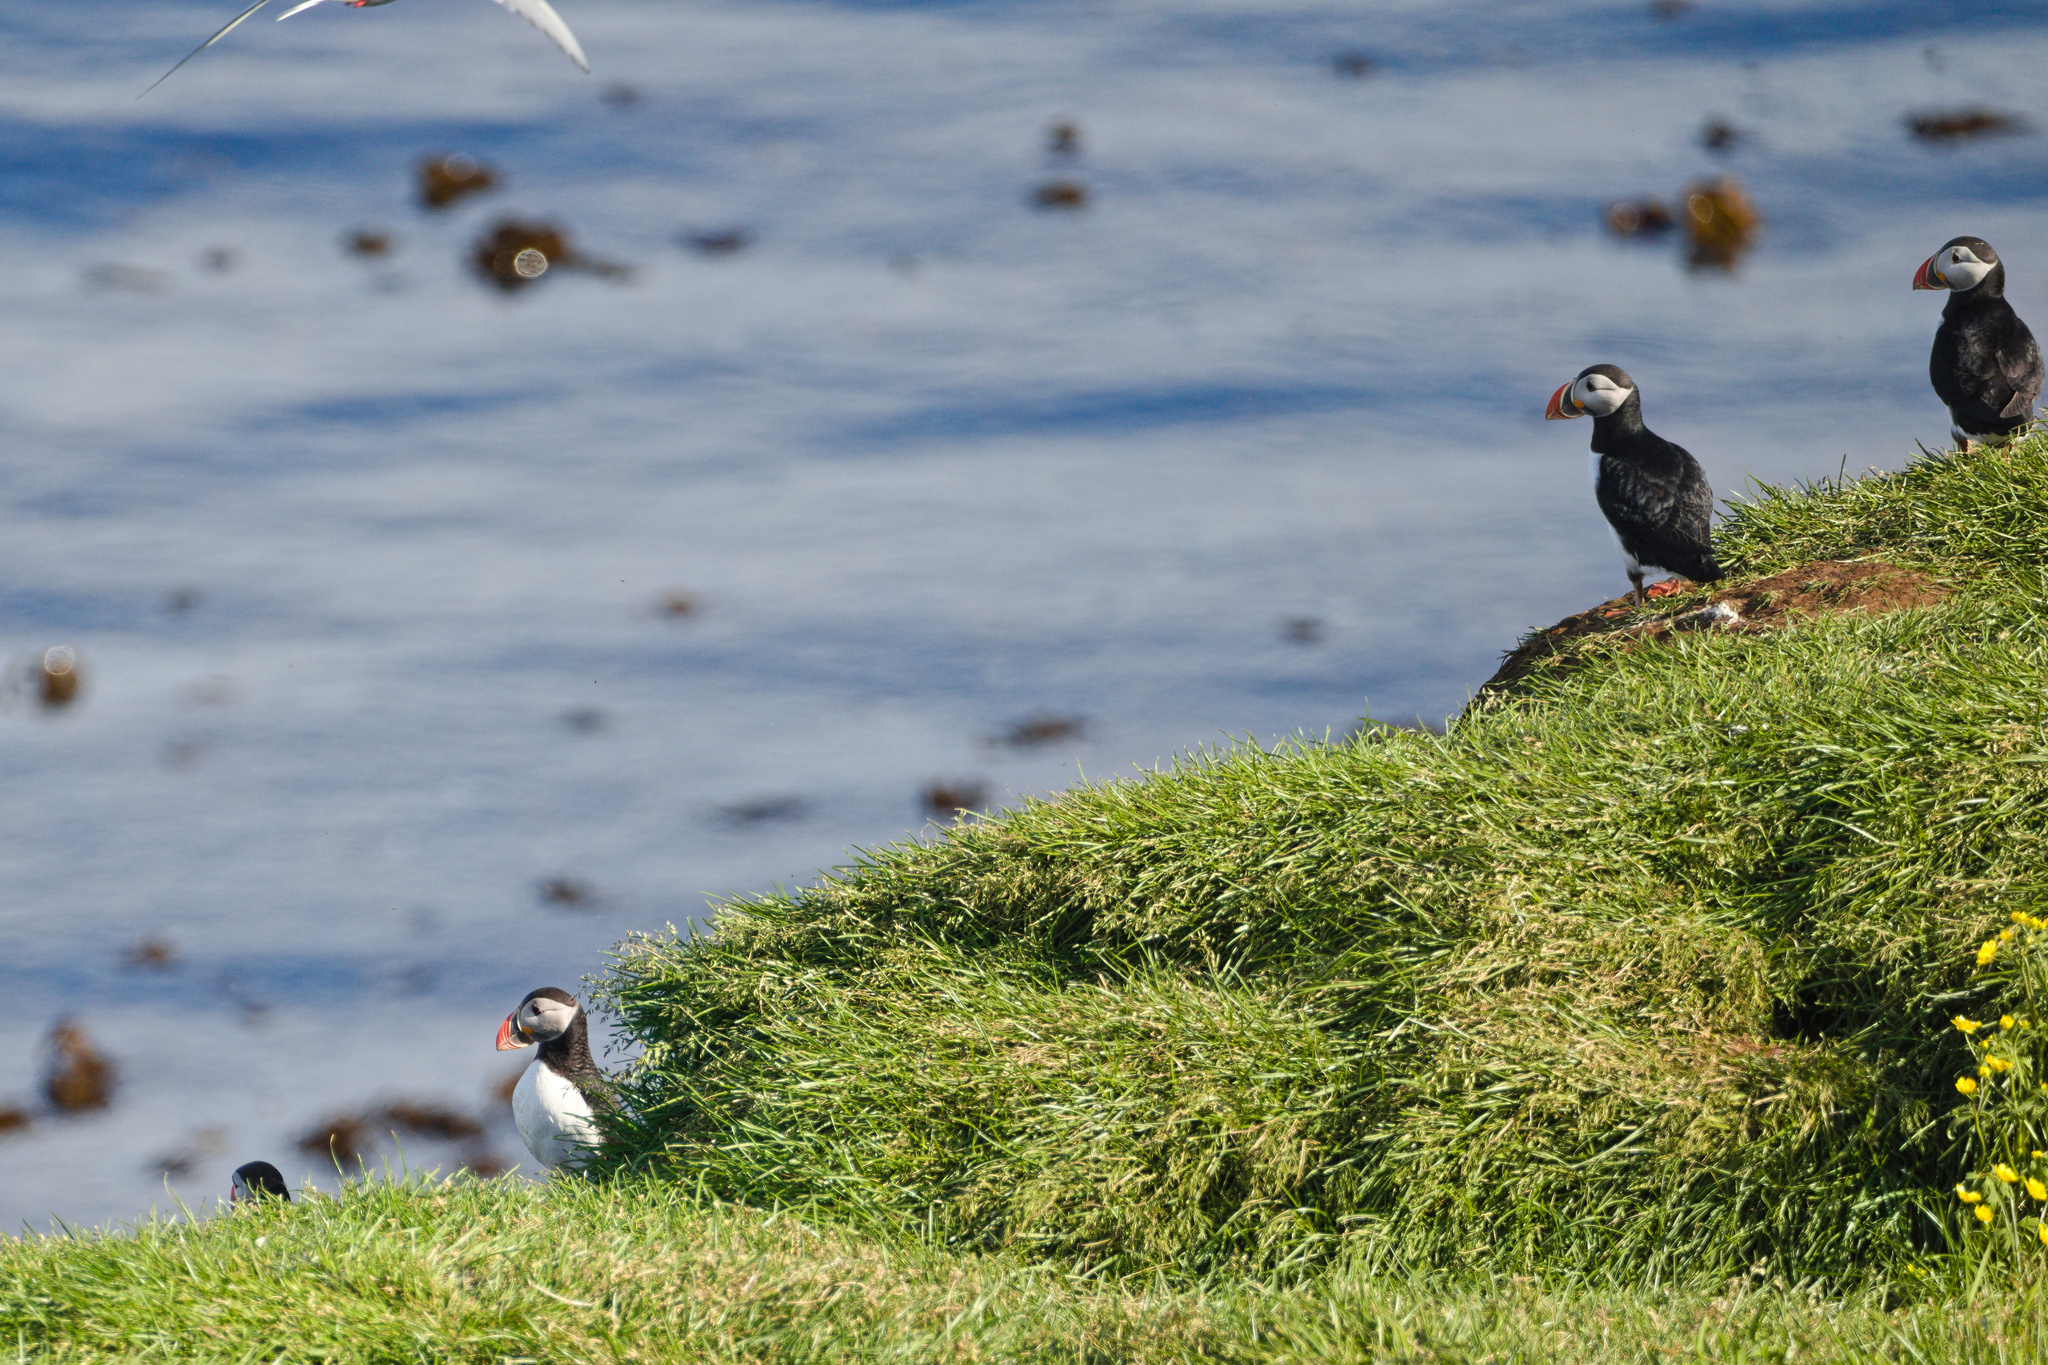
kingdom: Animalia
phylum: Chordata
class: Aves
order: Charadriiformes
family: Alcidae
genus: Fratercula
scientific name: Fratercula arctica
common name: Atlantic puffin
